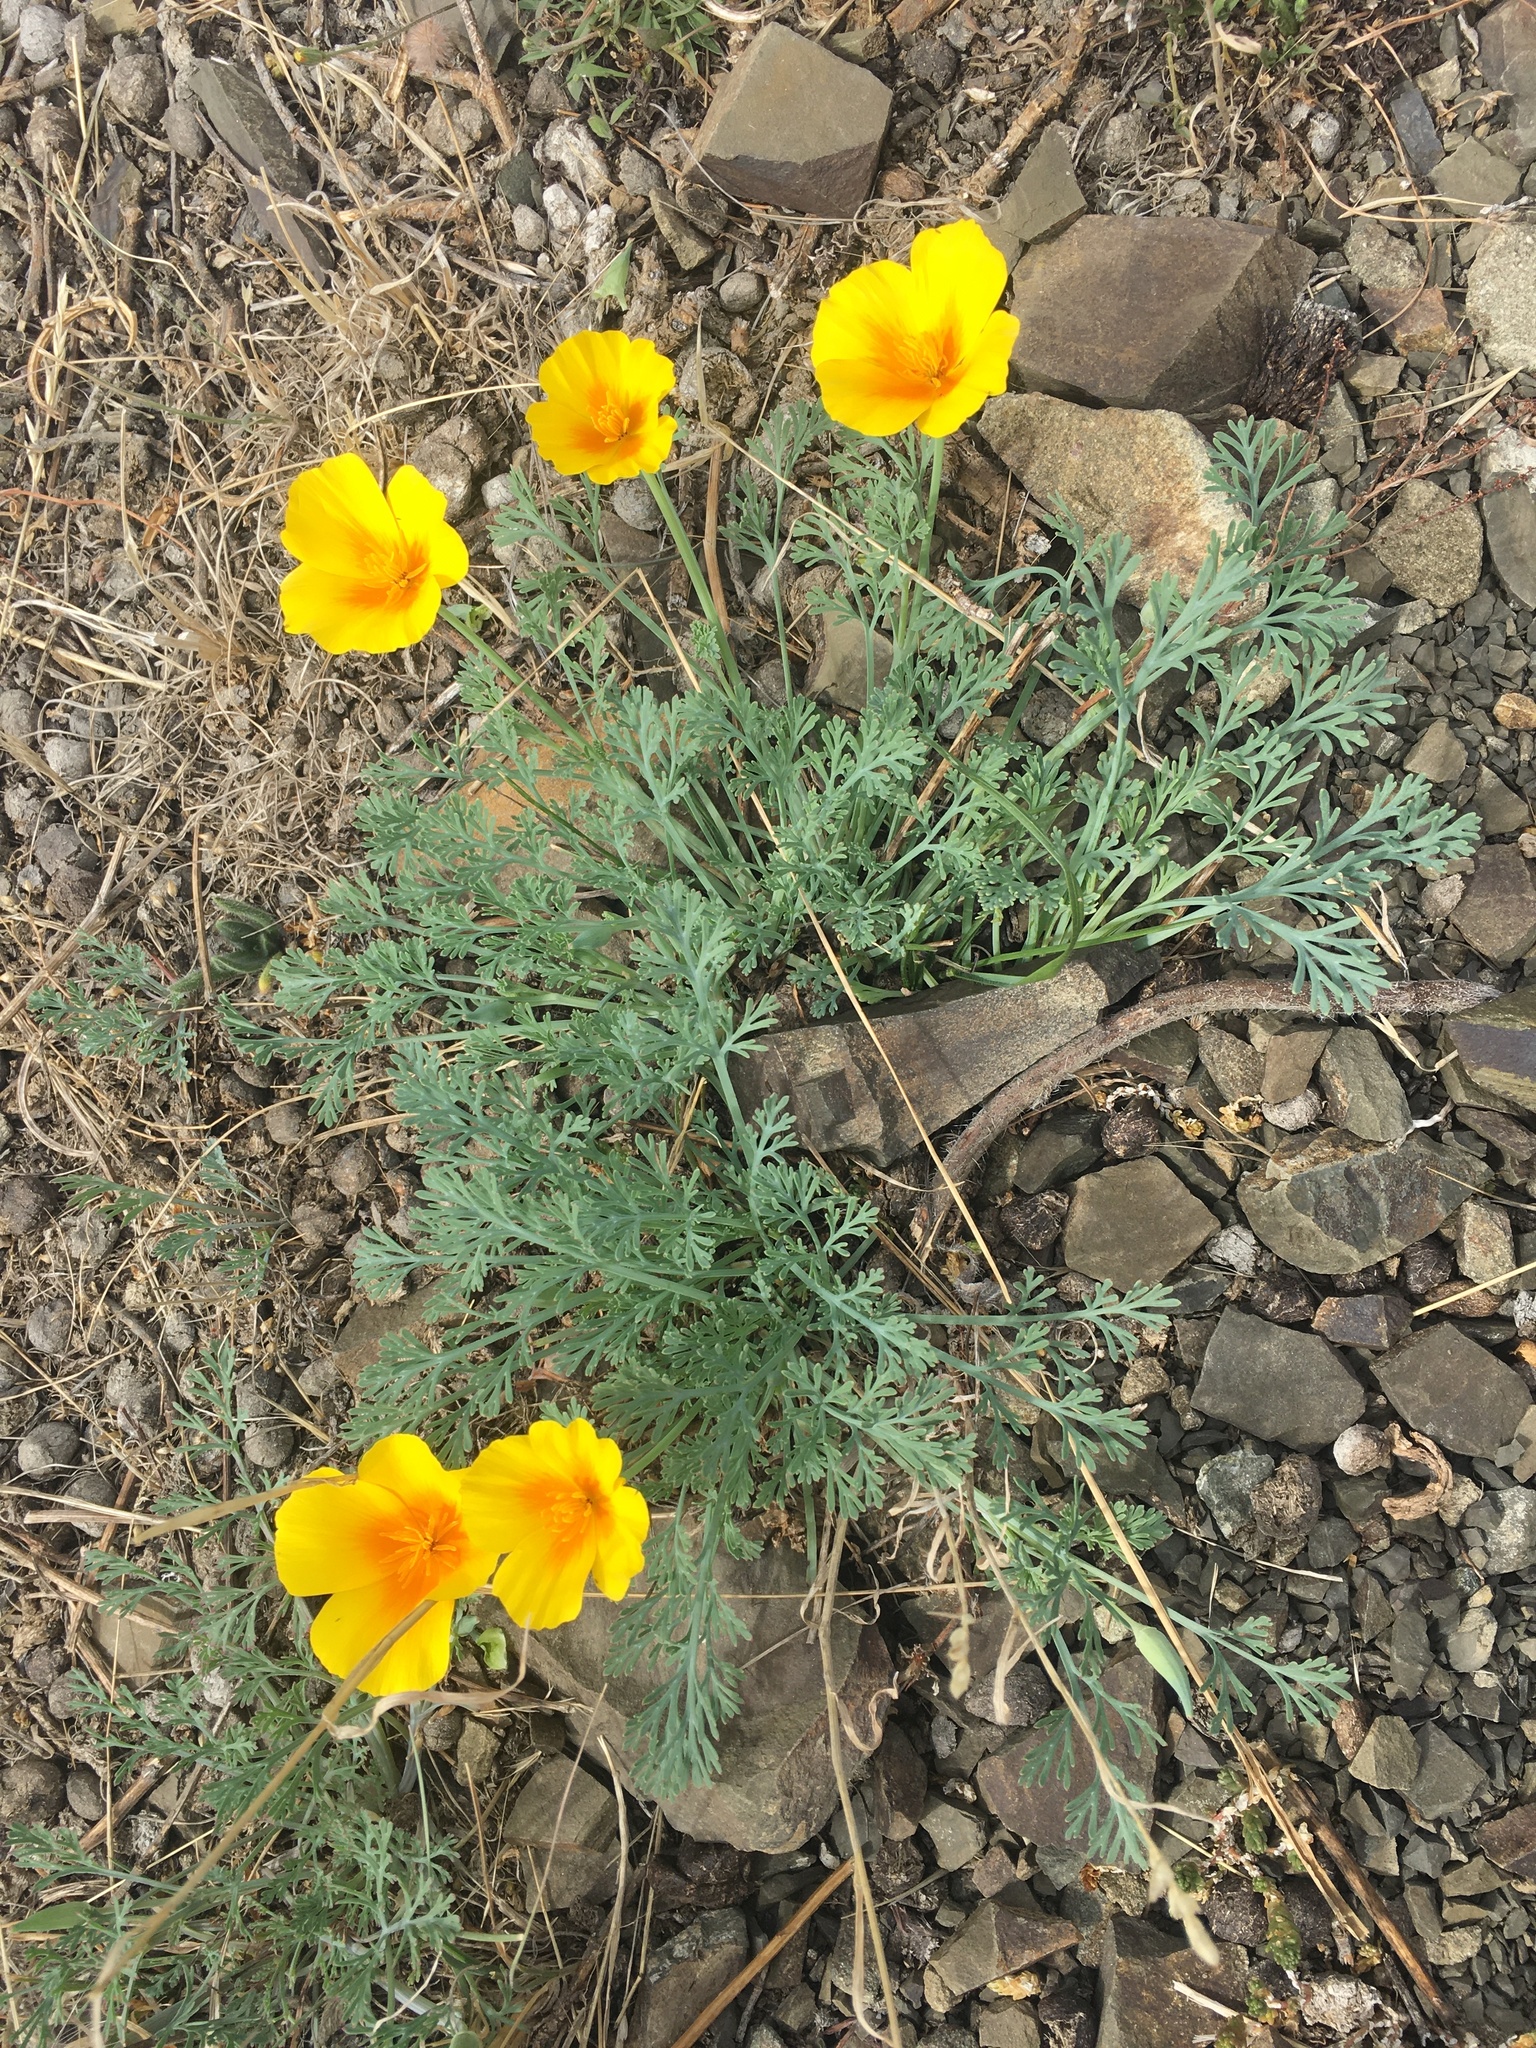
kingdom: Plantae
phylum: Tracheophyta
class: Magnoliopsida
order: Ranunculales
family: Papaveraceae
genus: Eschscholzia
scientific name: Eschscholzia californica
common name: California poppy
